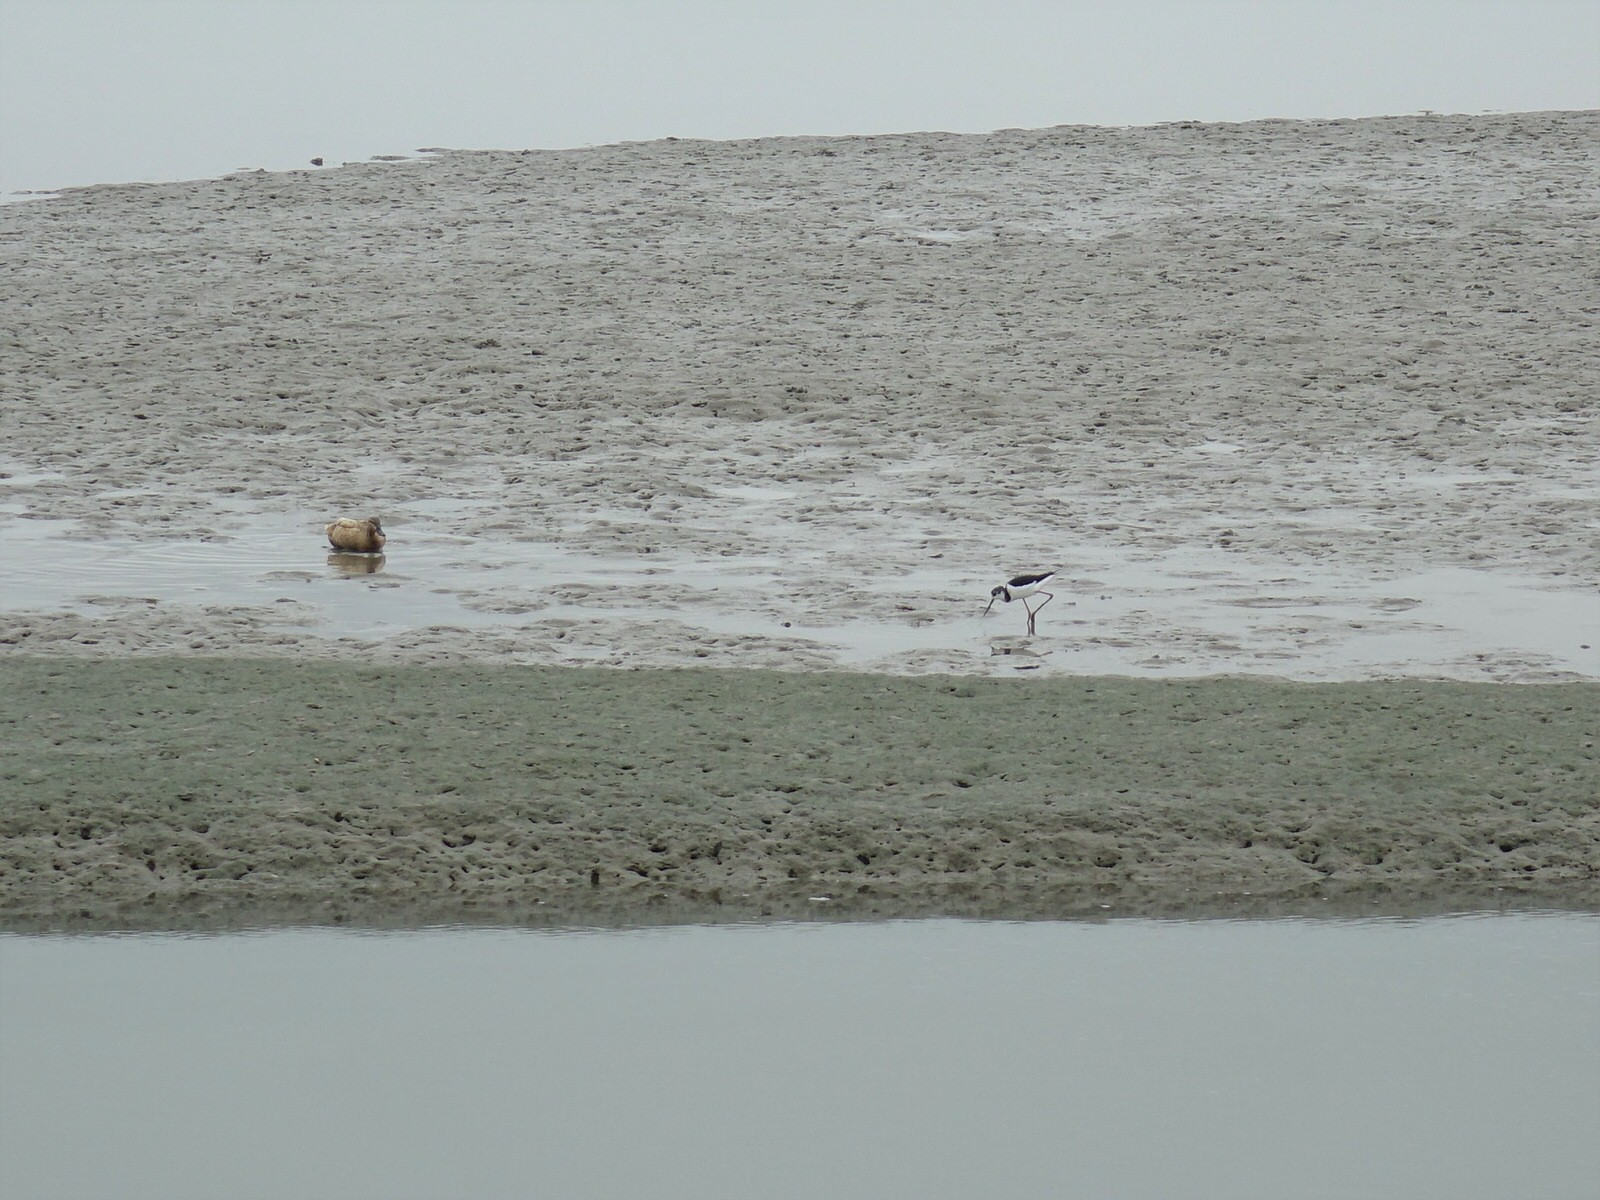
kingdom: Animalia
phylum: Chordata
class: Aves
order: Charadriiformes
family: Recurvirostridae
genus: Himantopus
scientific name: Himantopus leucocephalus
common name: White-headed stilt
